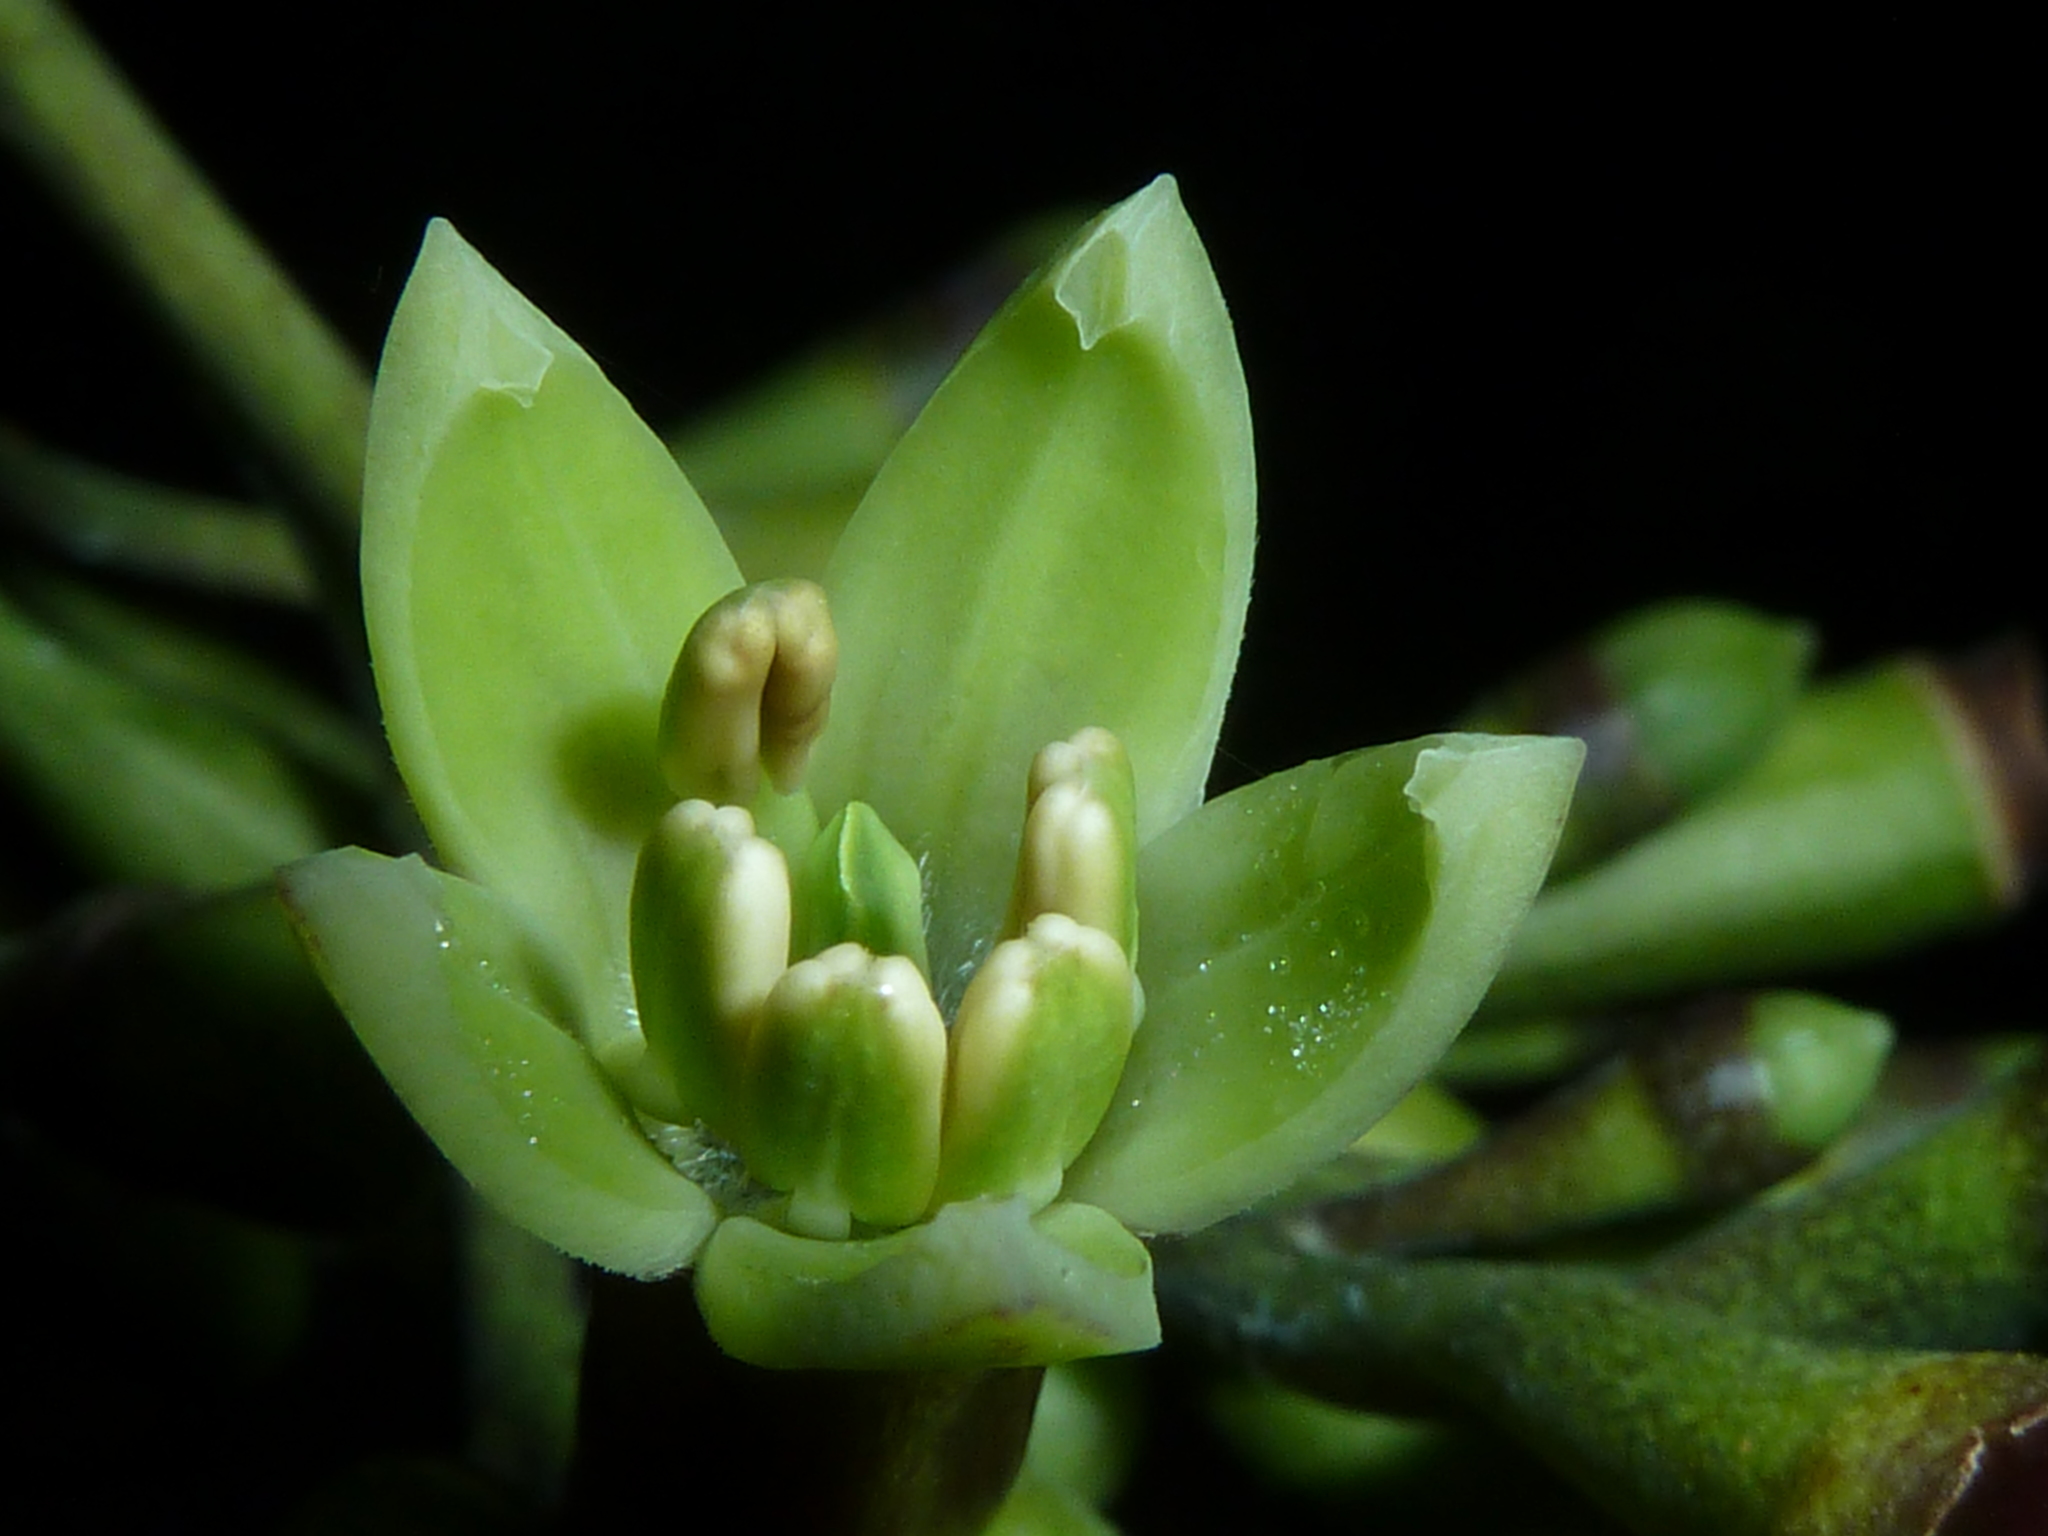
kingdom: Plantae
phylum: Tracheophyta
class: Magnoliopsida
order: Gentianales
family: Rubiaceae
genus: Condaminea
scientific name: Condaminea corymbosa
